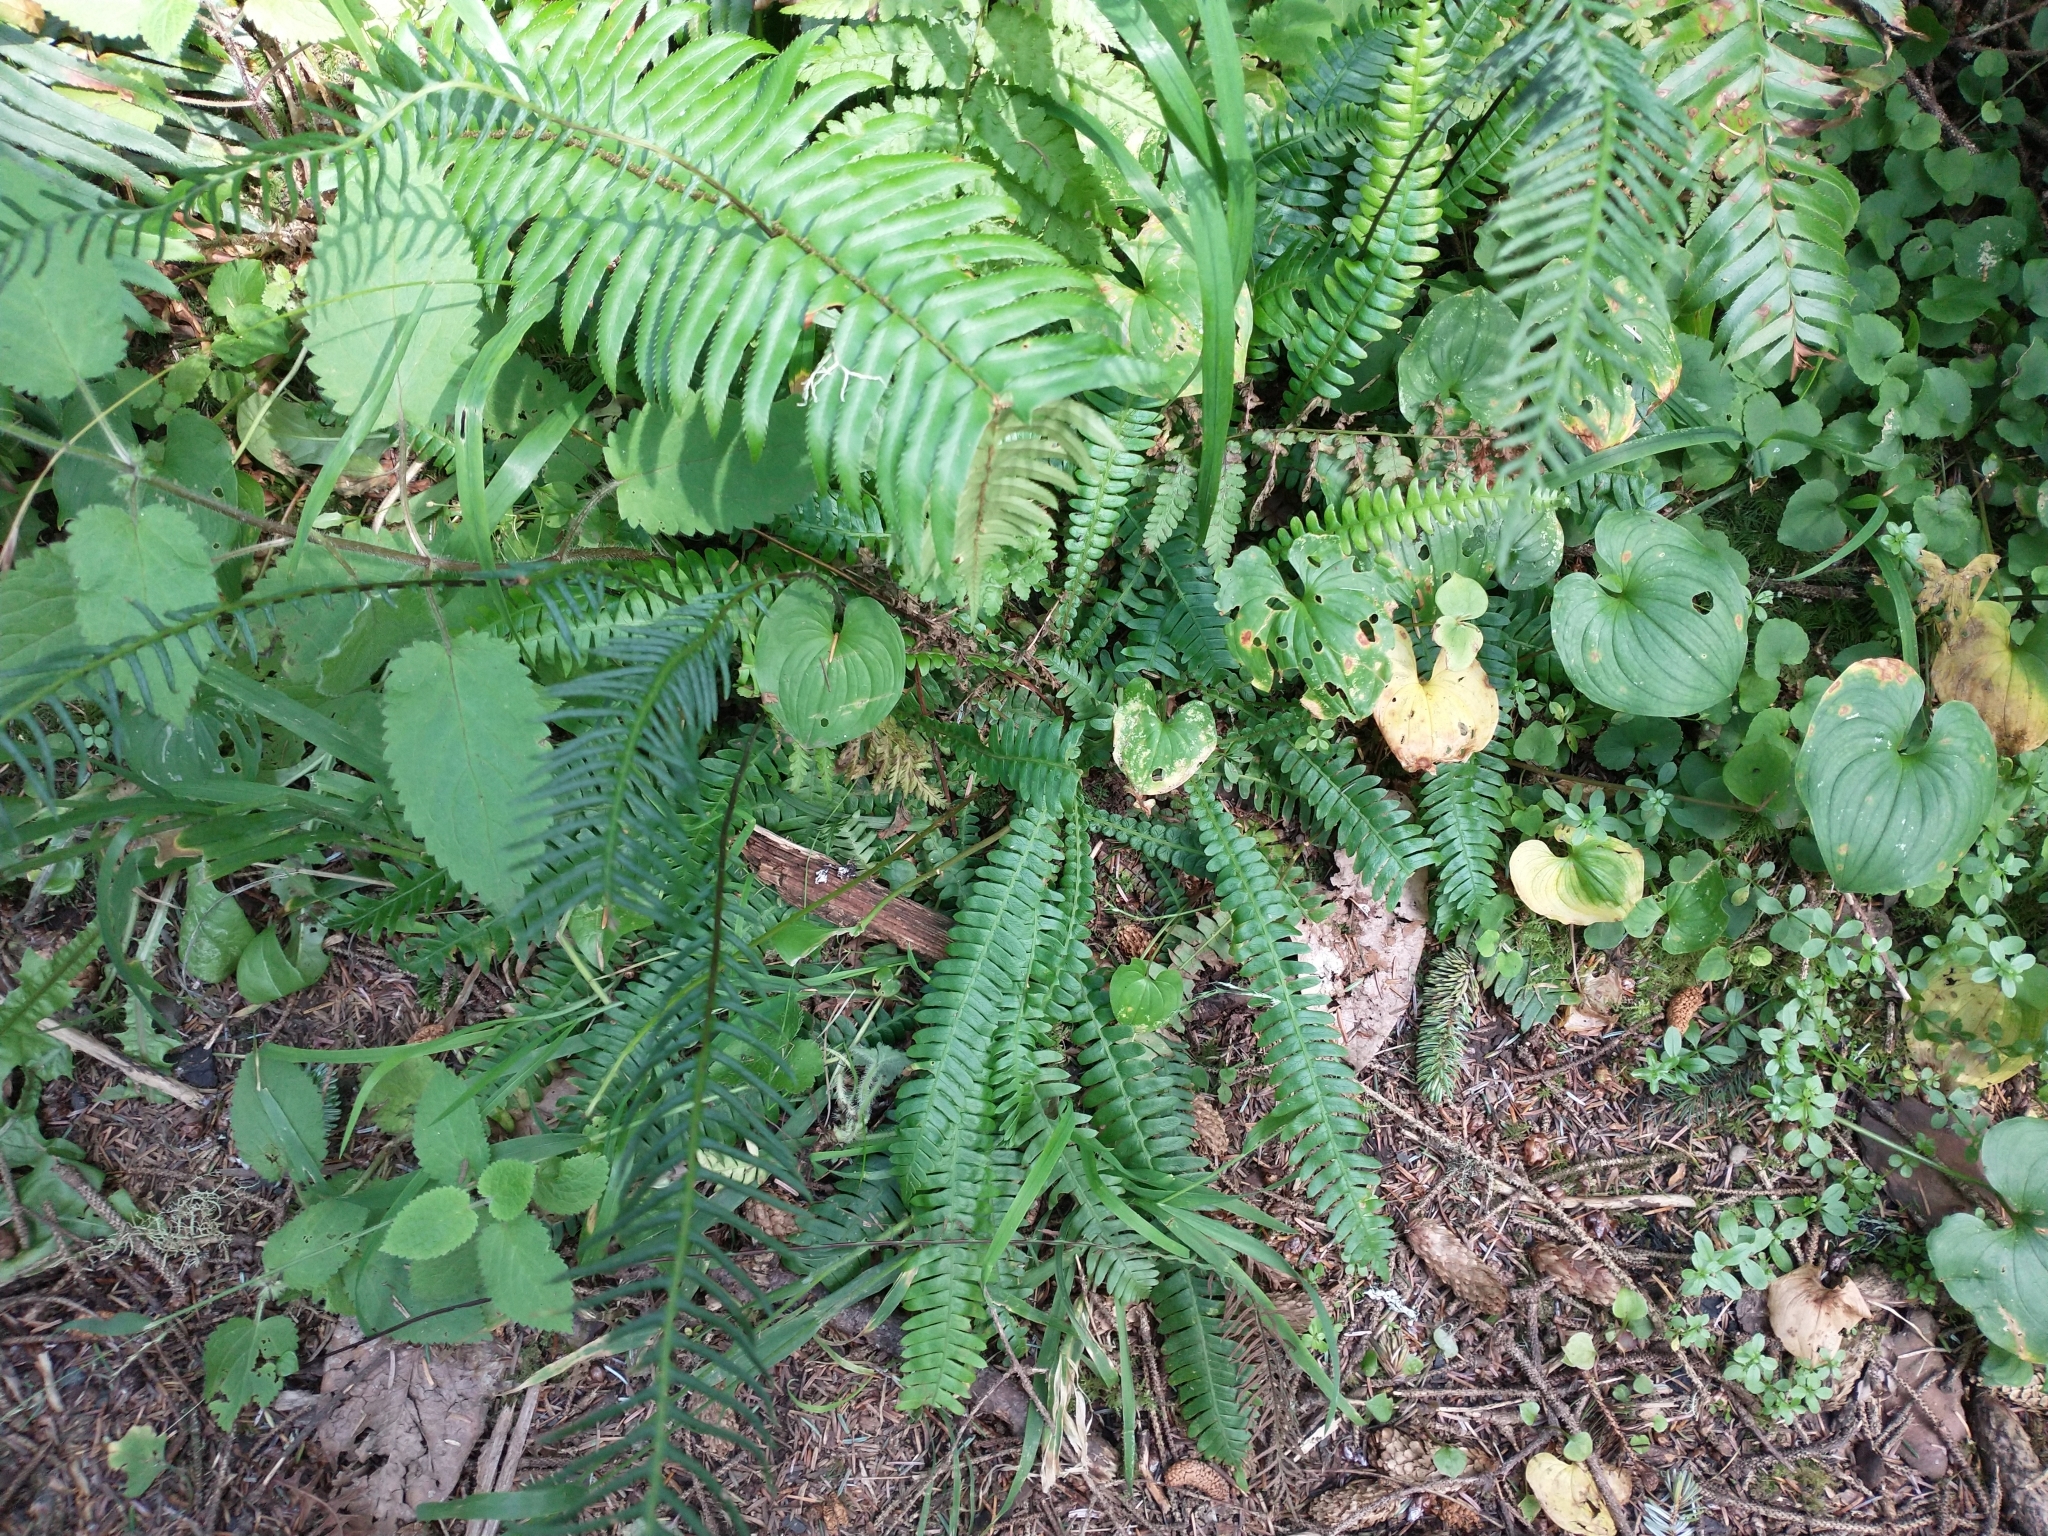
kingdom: Plantae
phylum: Tracheophyta
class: Polypodiopsida
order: Polypodiales
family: Blechnaceae
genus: Struthiopteris
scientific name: Struthiopteris spicant
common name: Deer fern
